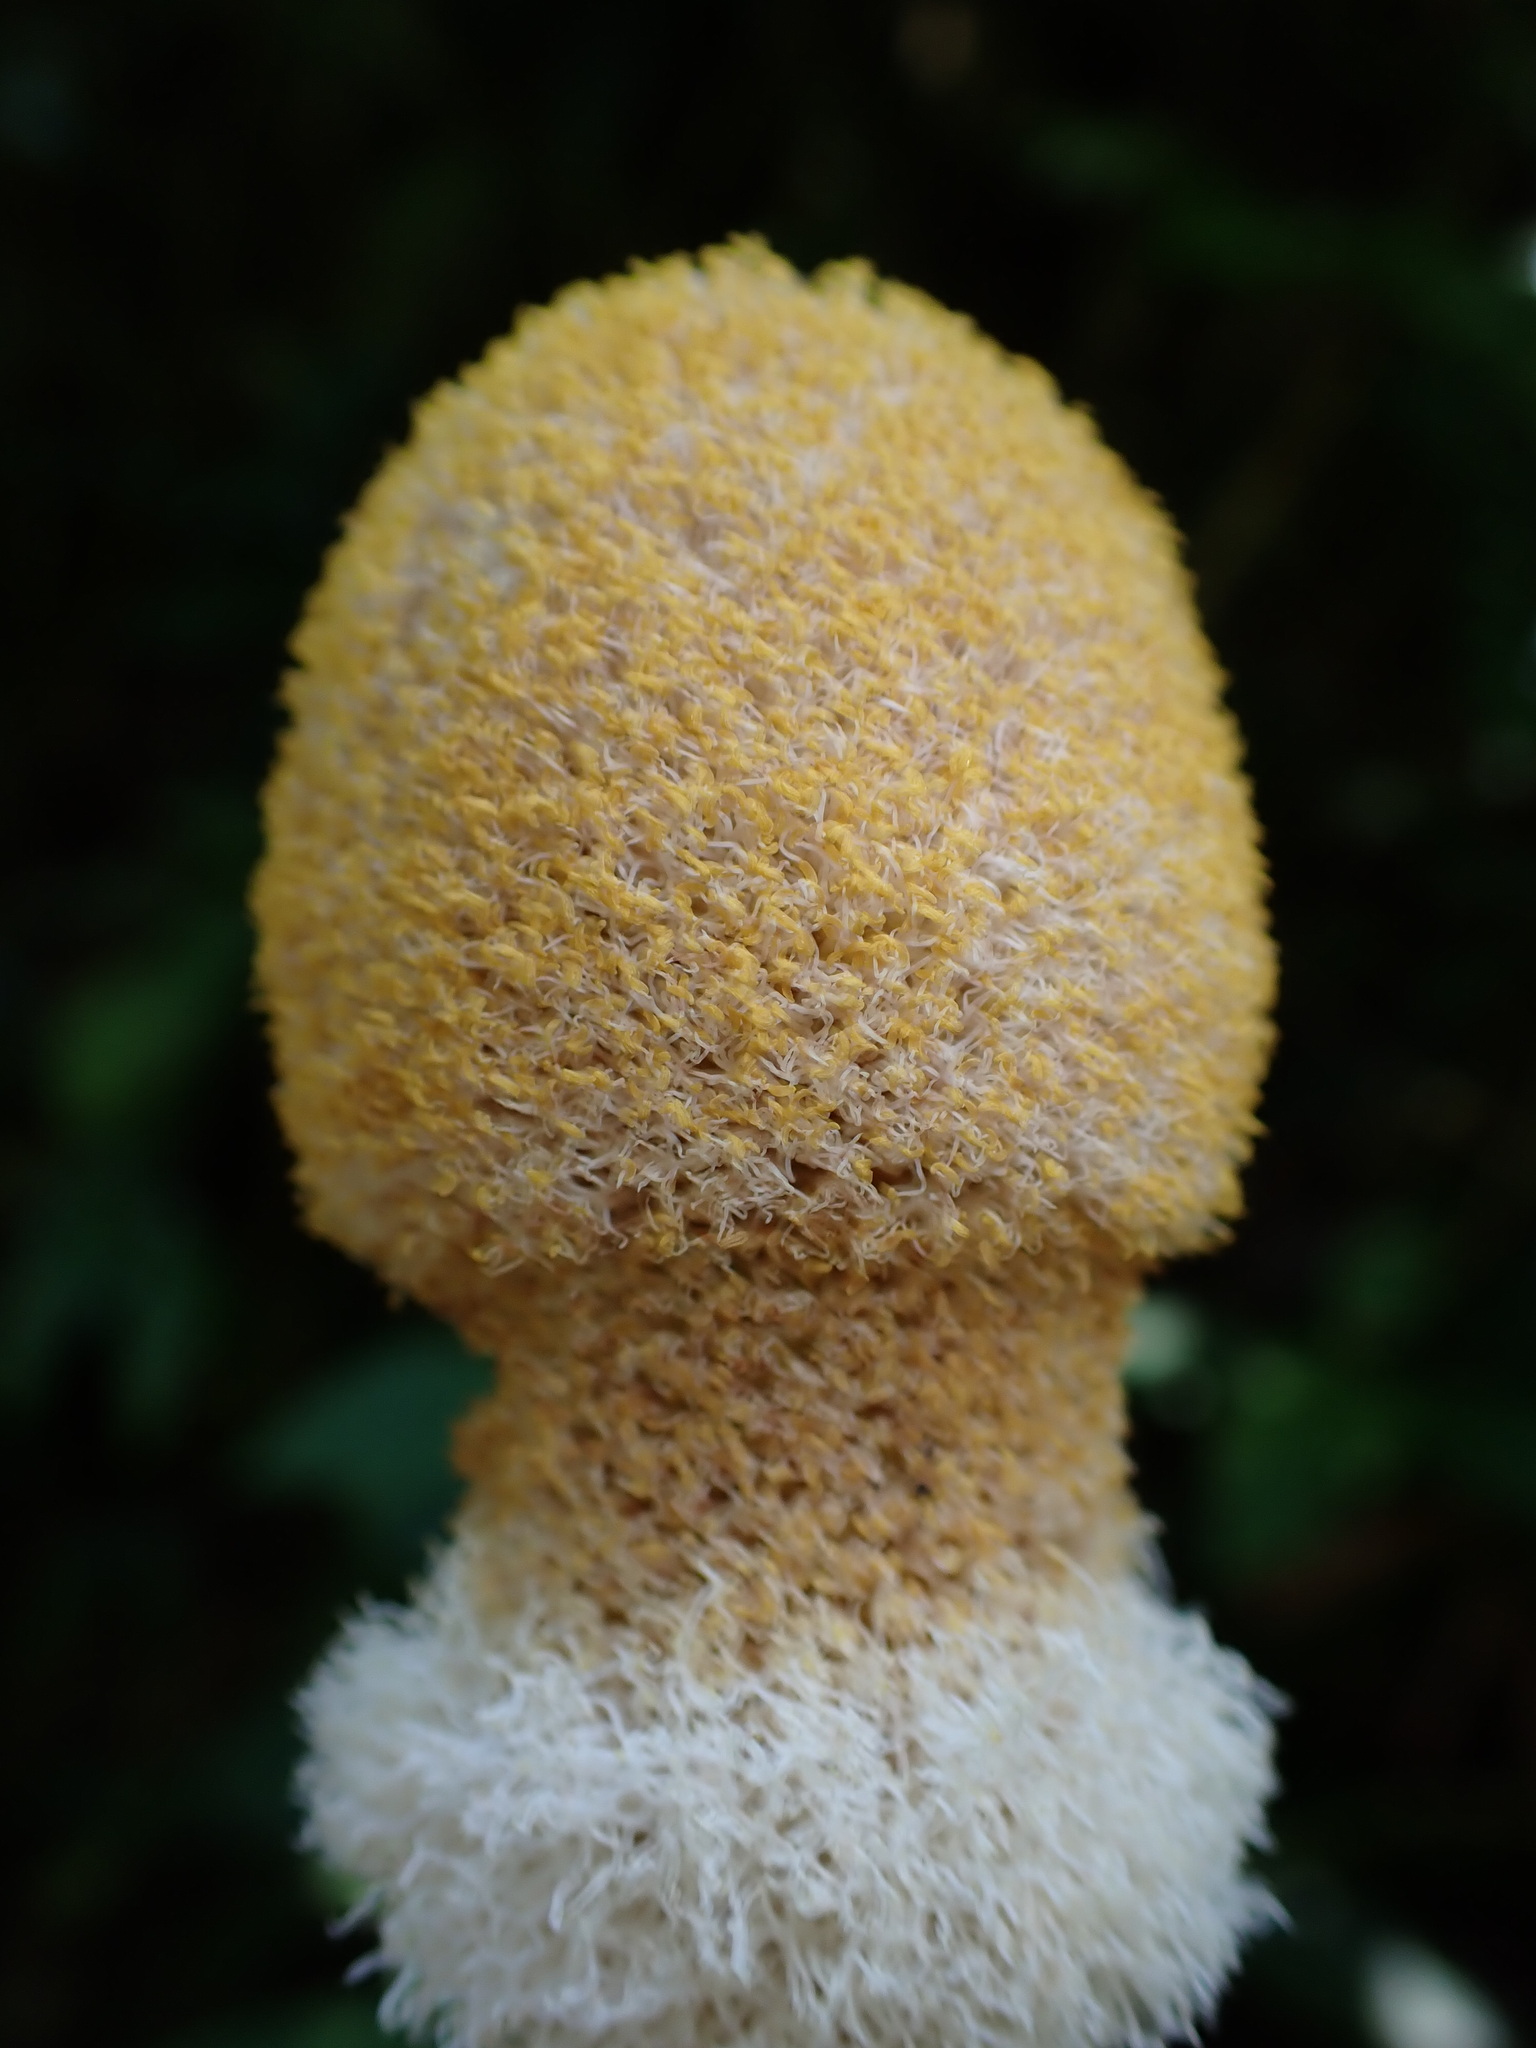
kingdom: Plantae
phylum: Tracheophyta
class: Magnoliopsida
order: Fabales
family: Fabaceae
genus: Parkia
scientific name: Parkia speciosa
